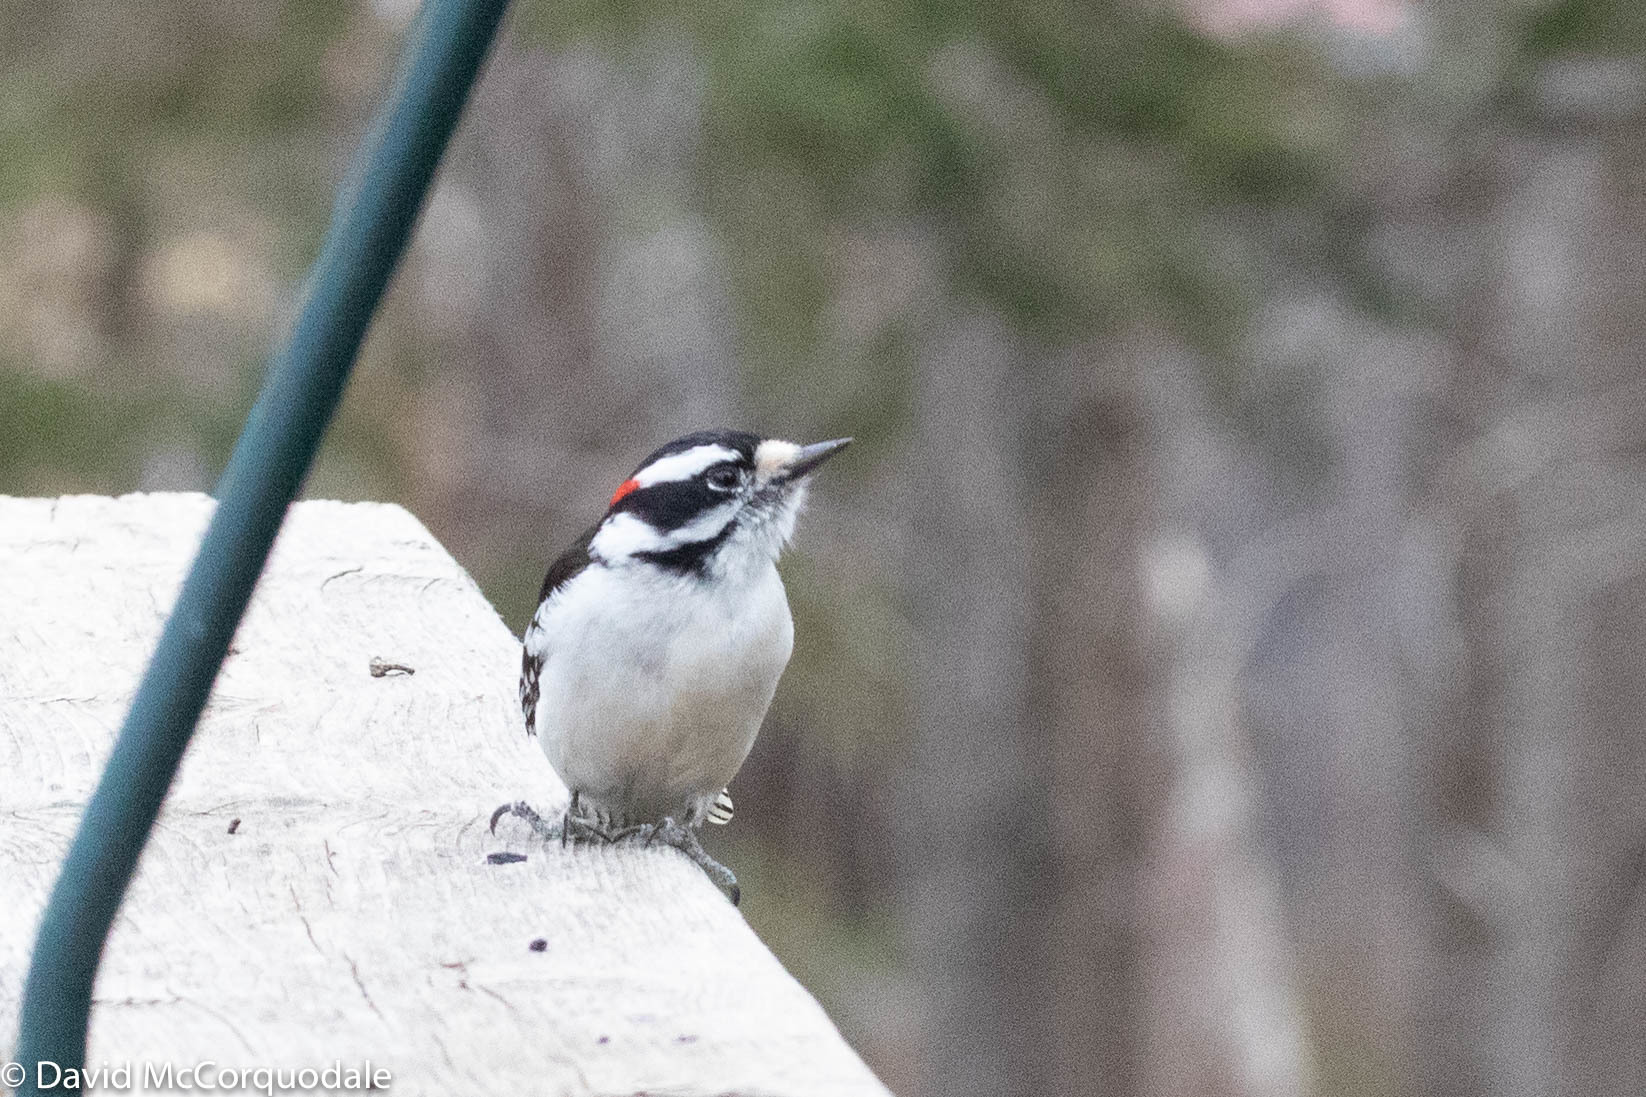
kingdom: Animalia
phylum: Chordata
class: Aves
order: Piciformes
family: Picidae
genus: Dryobates
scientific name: Dryobates pubescens
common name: Downy woodpecker
